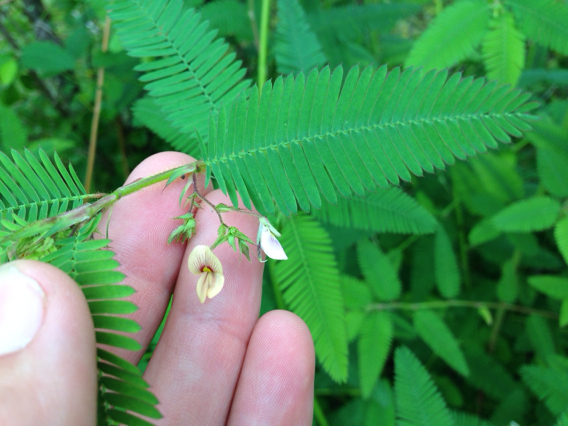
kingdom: Plantae
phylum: Tracheophyta
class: Magnoliopsida
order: Fabales
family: Fabaceae
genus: Aeschynomene
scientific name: Aeschynomene americana
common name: Joint-vetch
